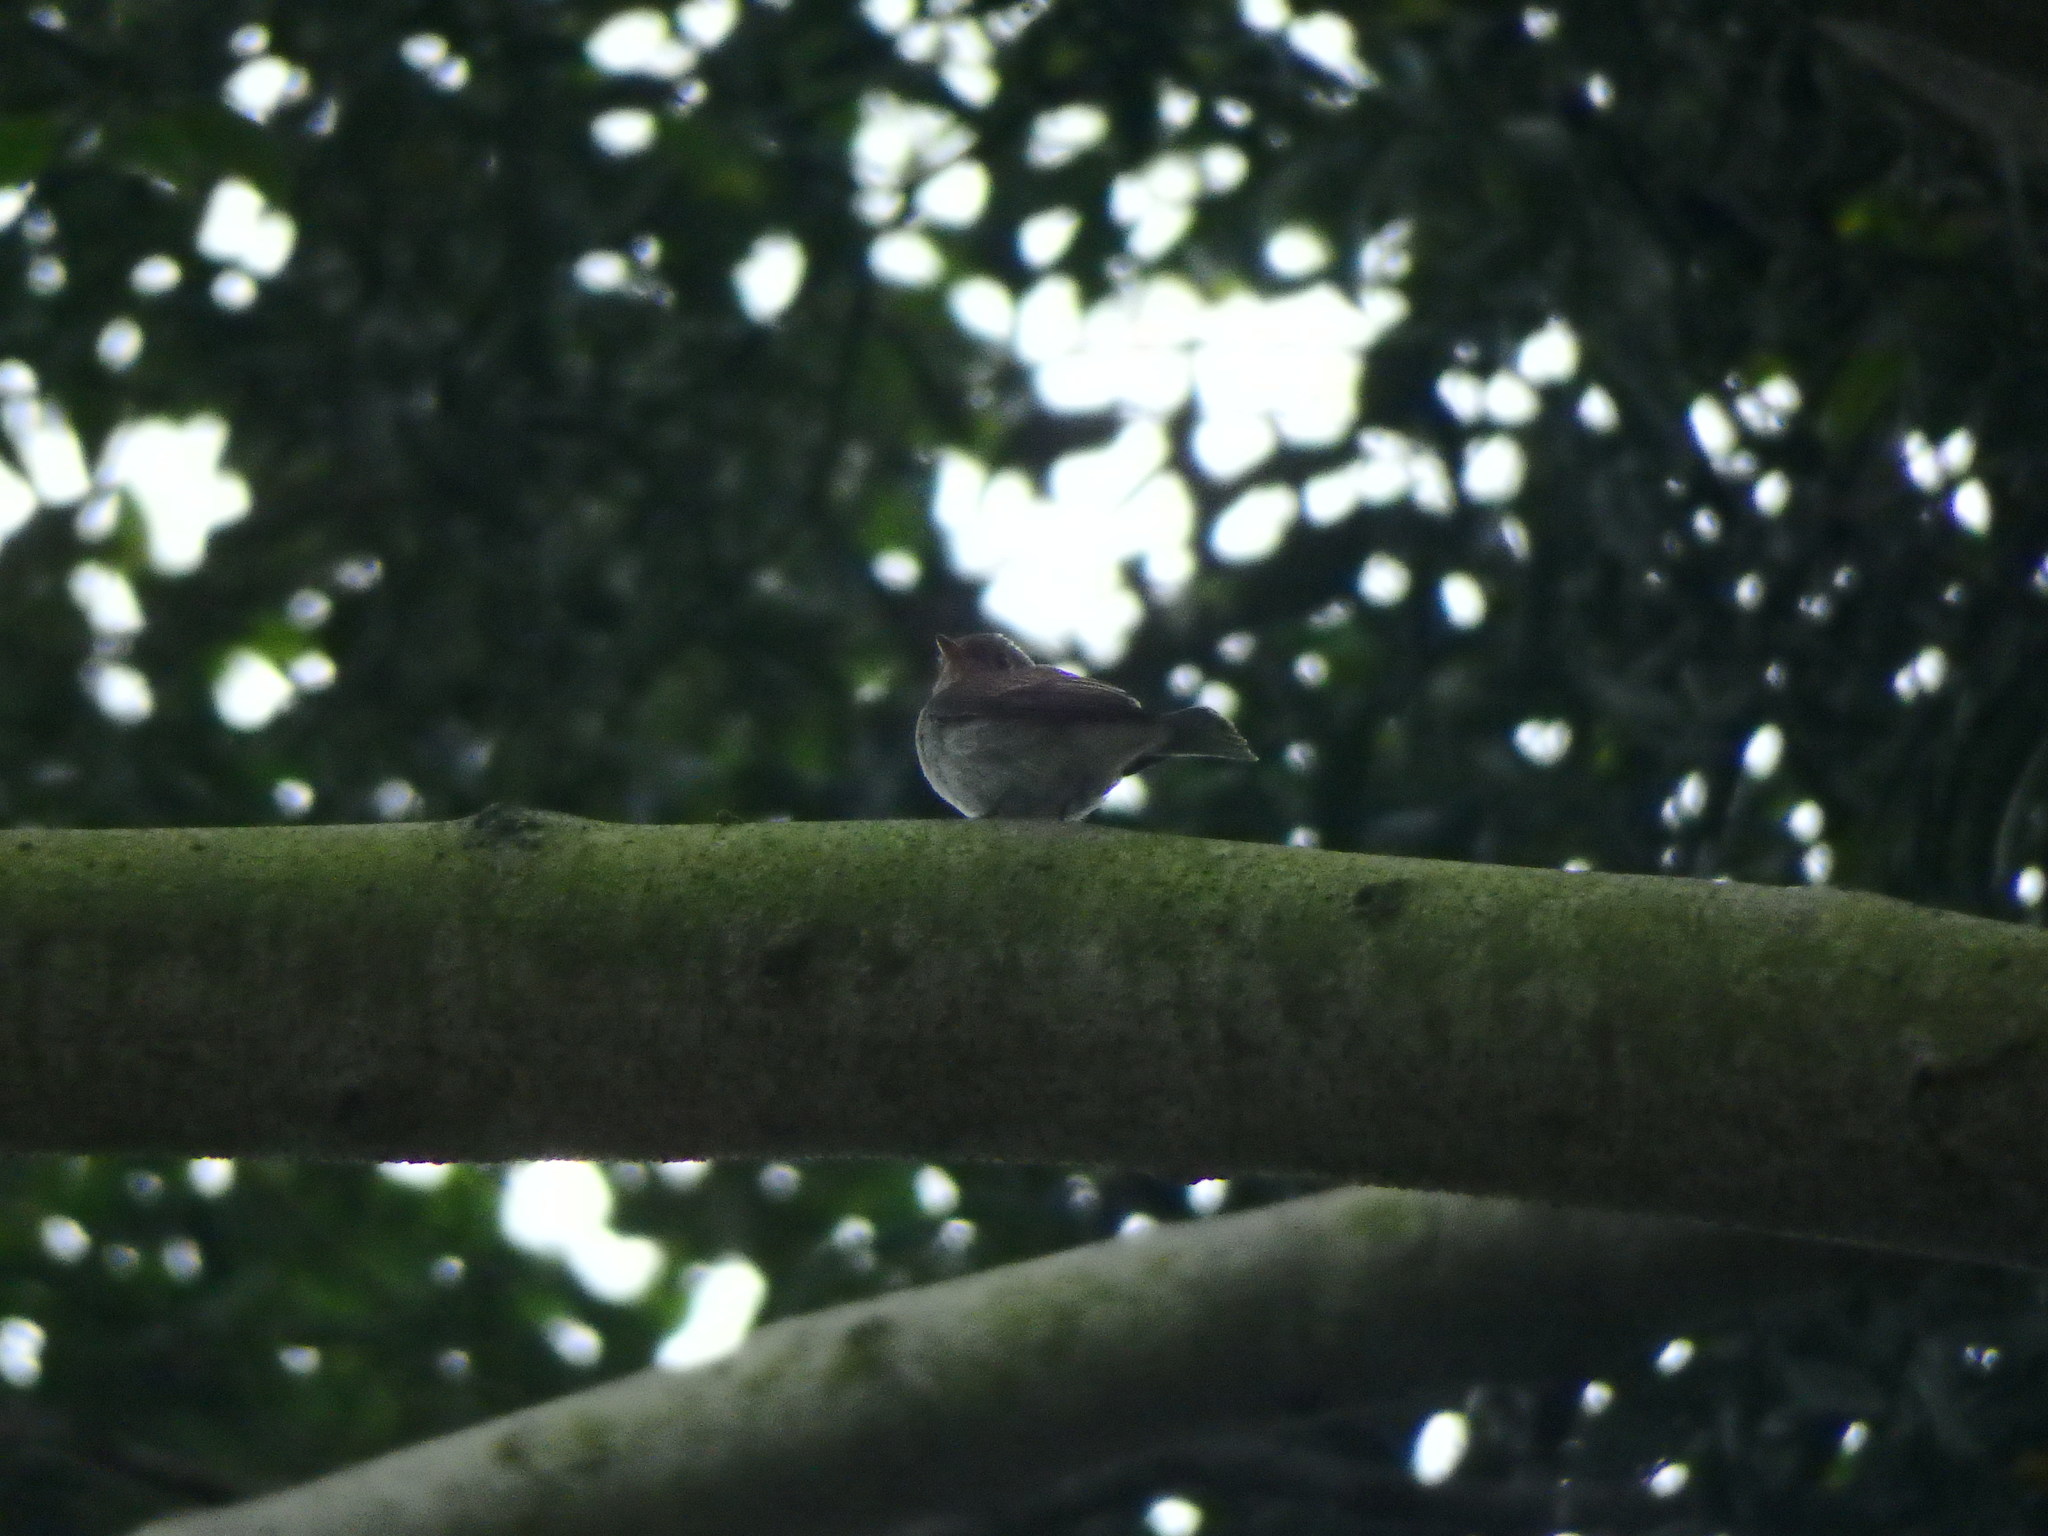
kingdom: Animalia
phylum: Chordata
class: Aves
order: Passeriformes
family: Muscicapidae
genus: Muscicapa
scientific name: Muscicapa latirostris
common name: Asian brown flycatcher
